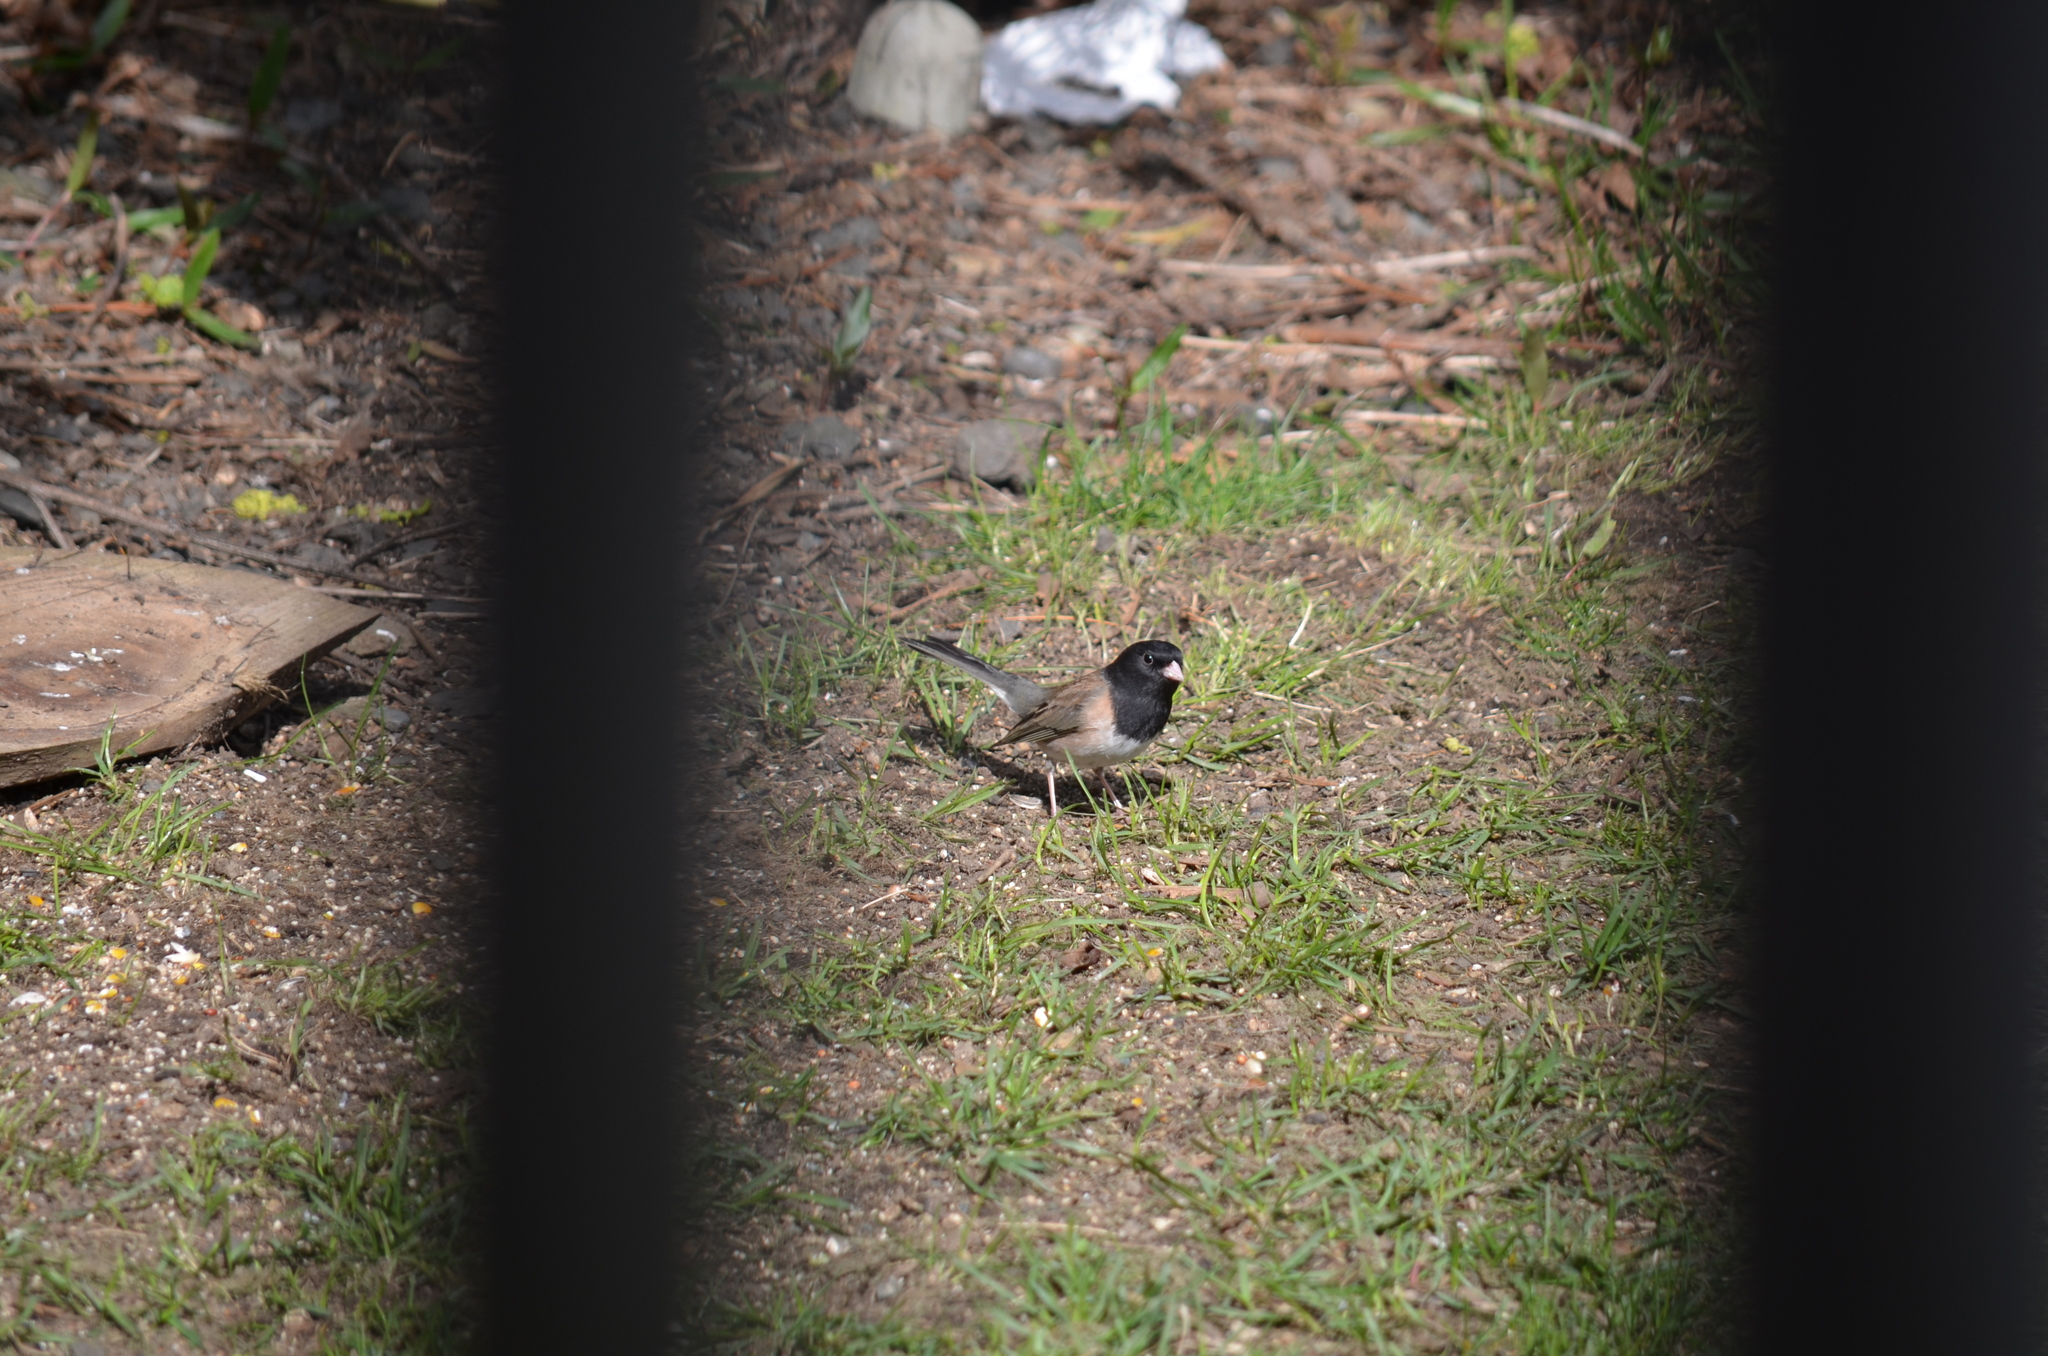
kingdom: Animalia
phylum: Chordata
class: Aves
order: Passeriformes
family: Passerellidae
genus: Junco
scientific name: Junco hyemalis
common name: Dark-eyed junco
